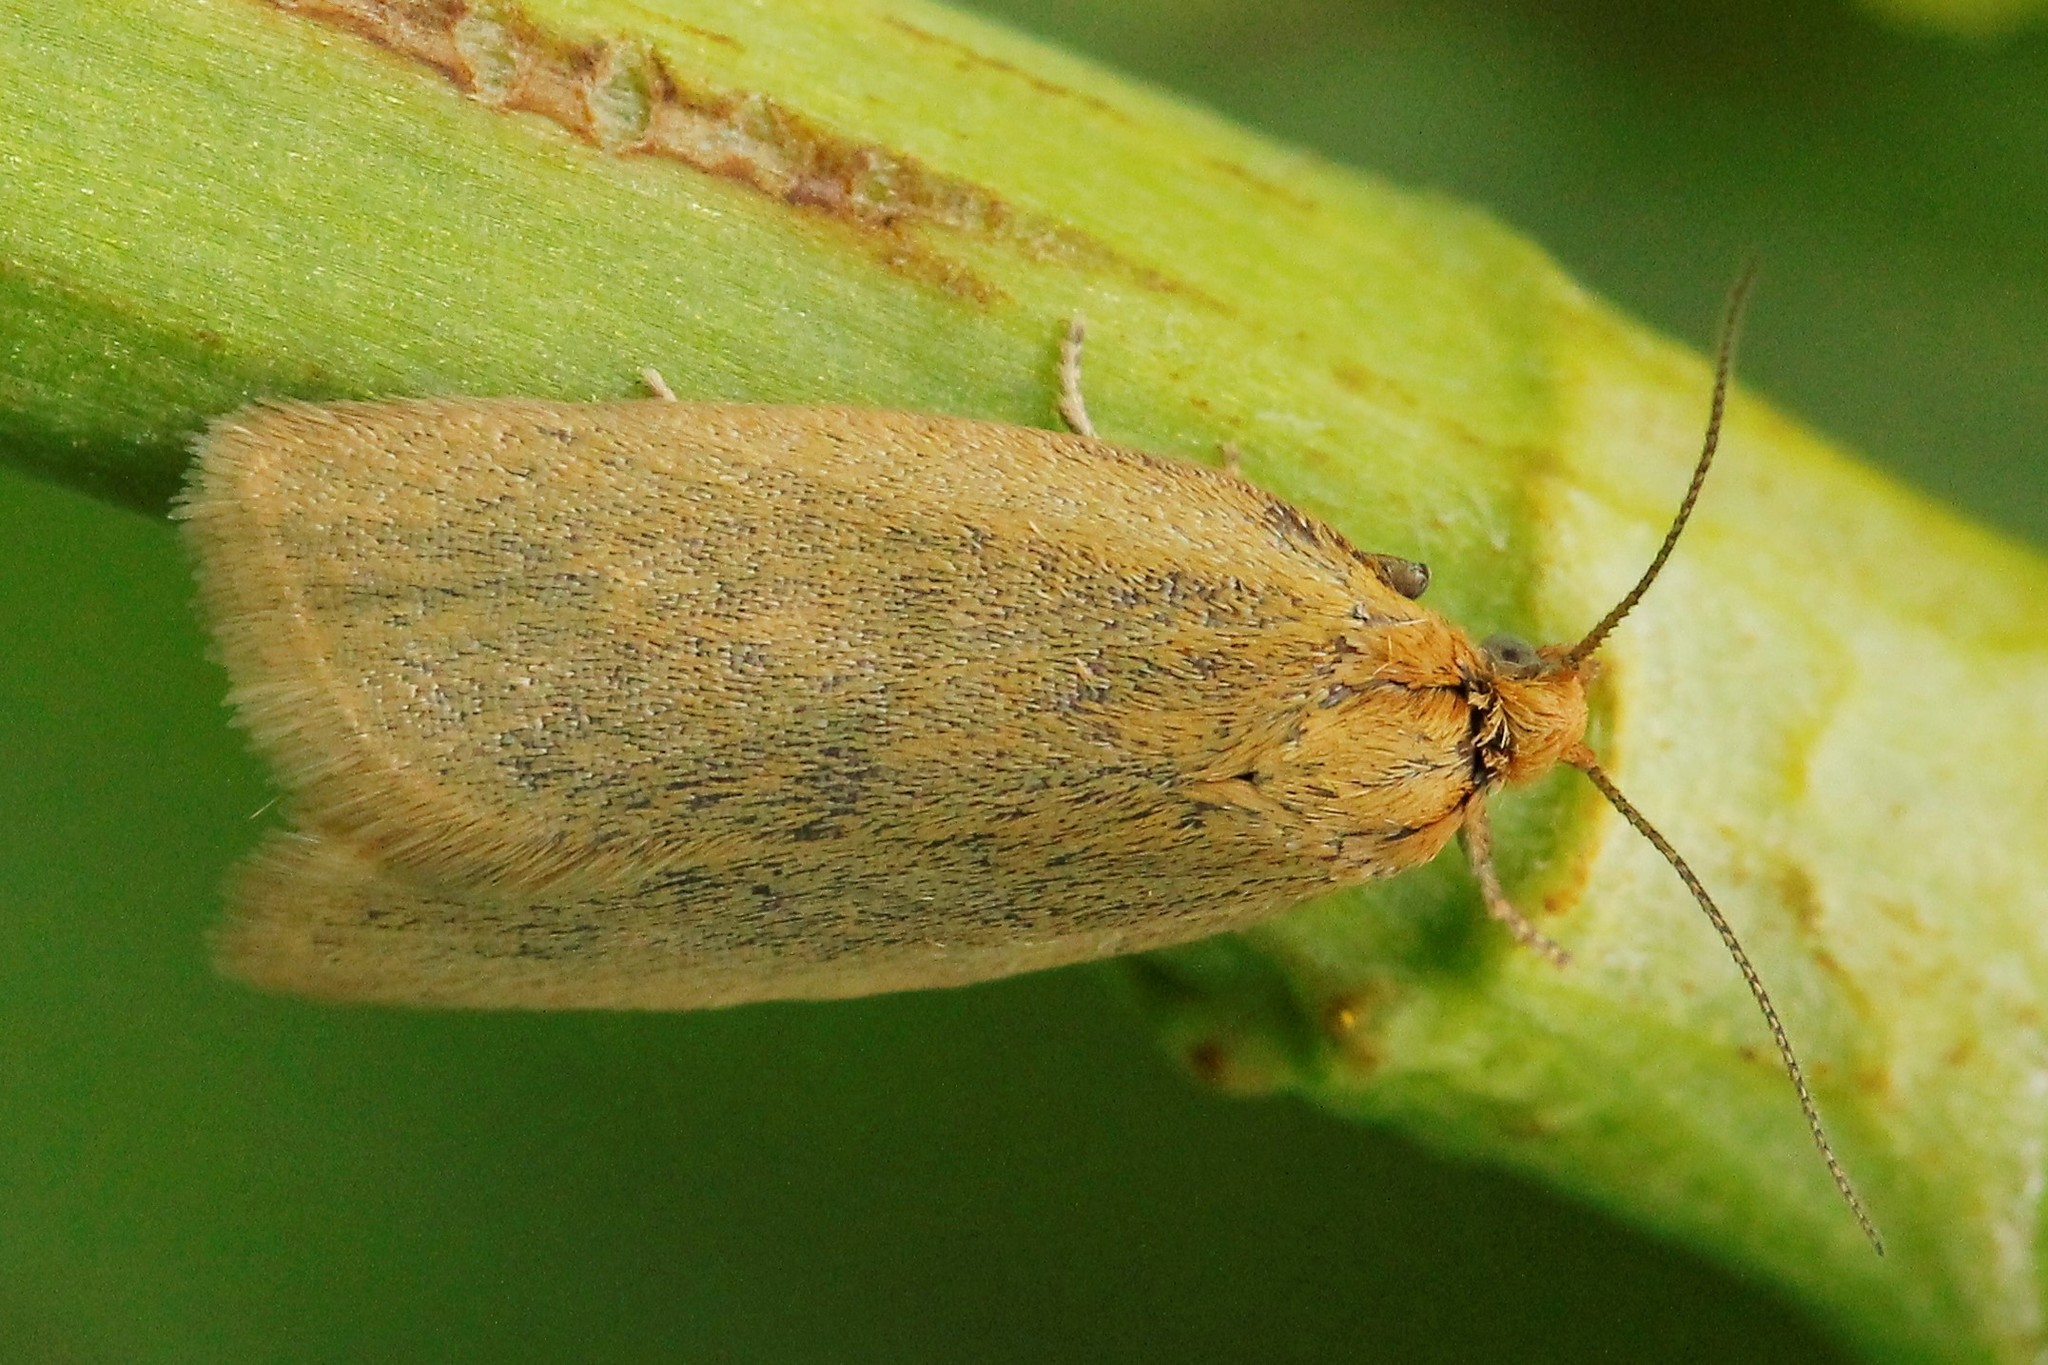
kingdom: Animalia
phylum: Arthropoda
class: Insecta
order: Lepidoptera
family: Tortricidae
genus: Aphelia
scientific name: Aphelia viburnana
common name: Bilberry tortrix
